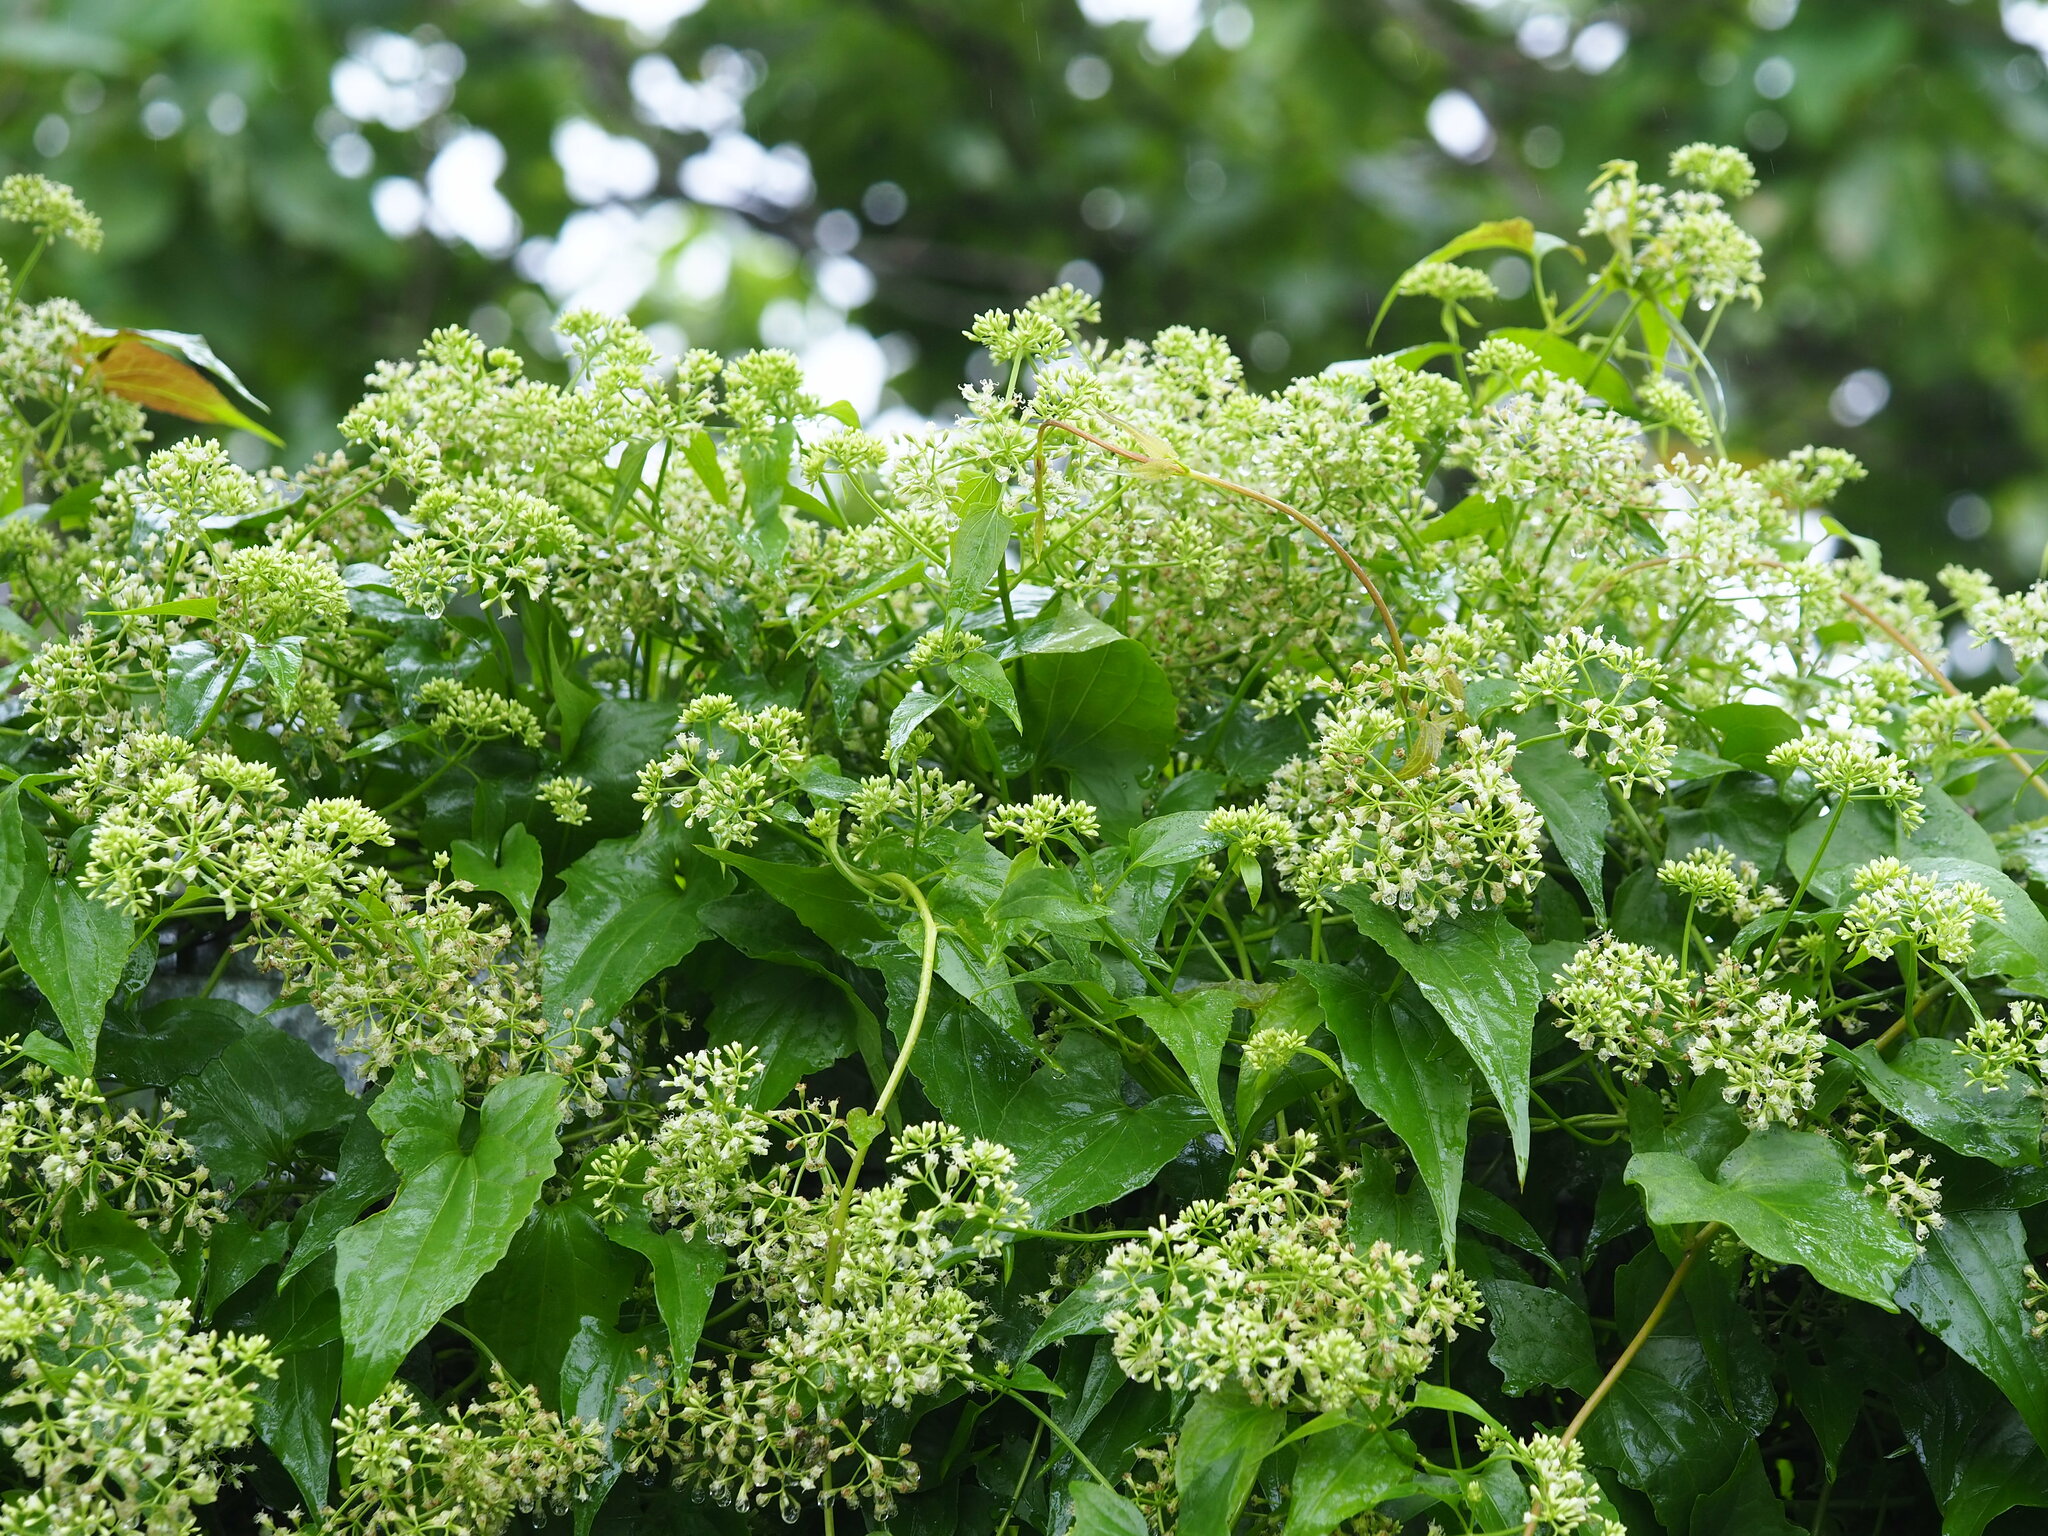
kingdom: Plantae
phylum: Tracheophyta
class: Magnoliopsida
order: Asterales
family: Asteraceae
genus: Mikania
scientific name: Mikania micrantha
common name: Mile-a-minute
